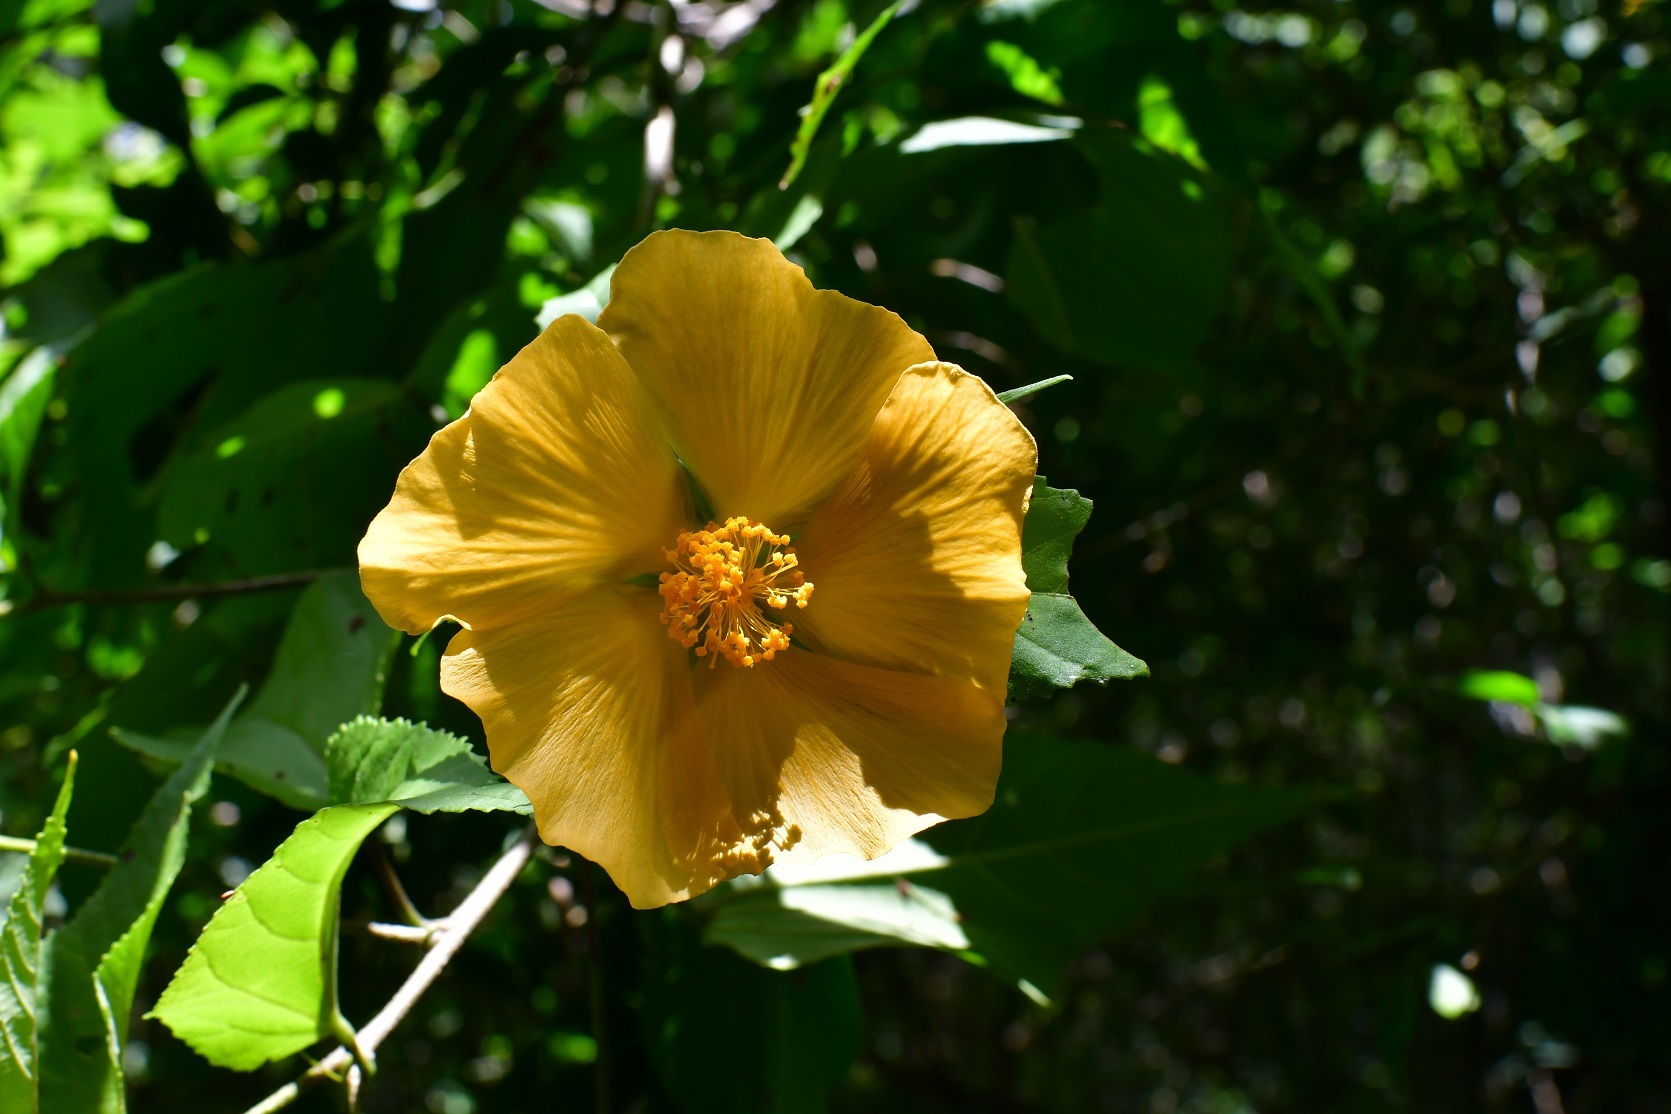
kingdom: Plantae
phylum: Tracheophyta
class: Magnoliopsida
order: Malvales
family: Malvaceae
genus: Dendrosida
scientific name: Dendrosida sharpiana
